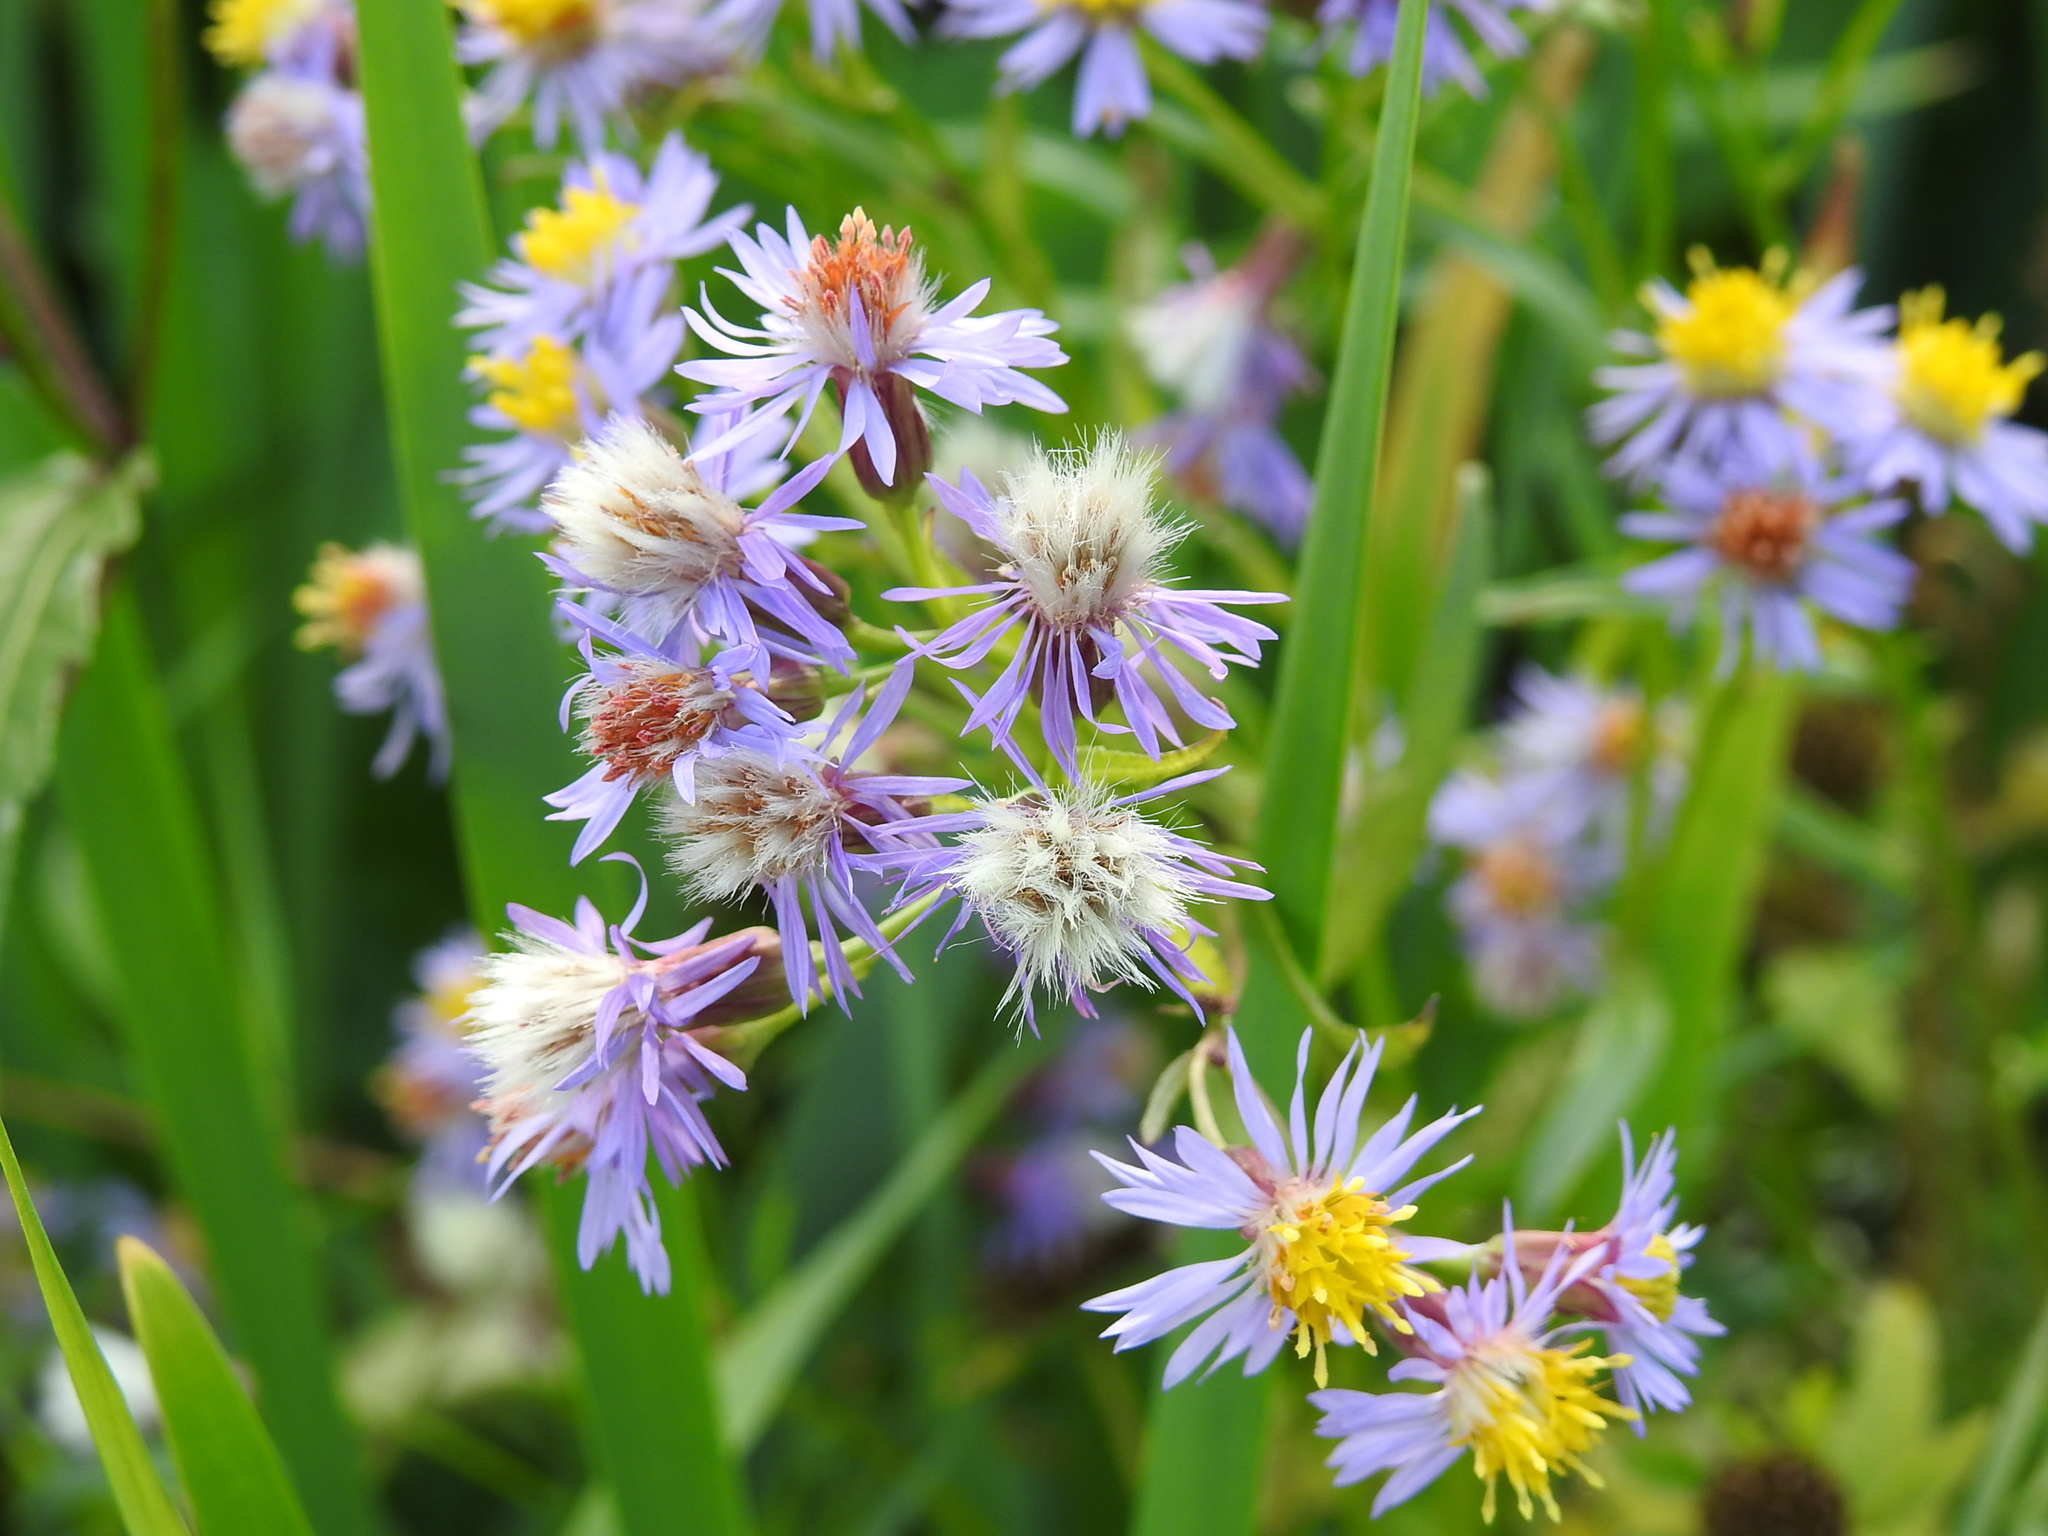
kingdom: Plantae
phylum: Tracheophyta
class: Magnoliopsida
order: Asterales
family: Asteraceae
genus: Tripolium
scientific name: Tripolium pannonicum
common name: Sea aster
